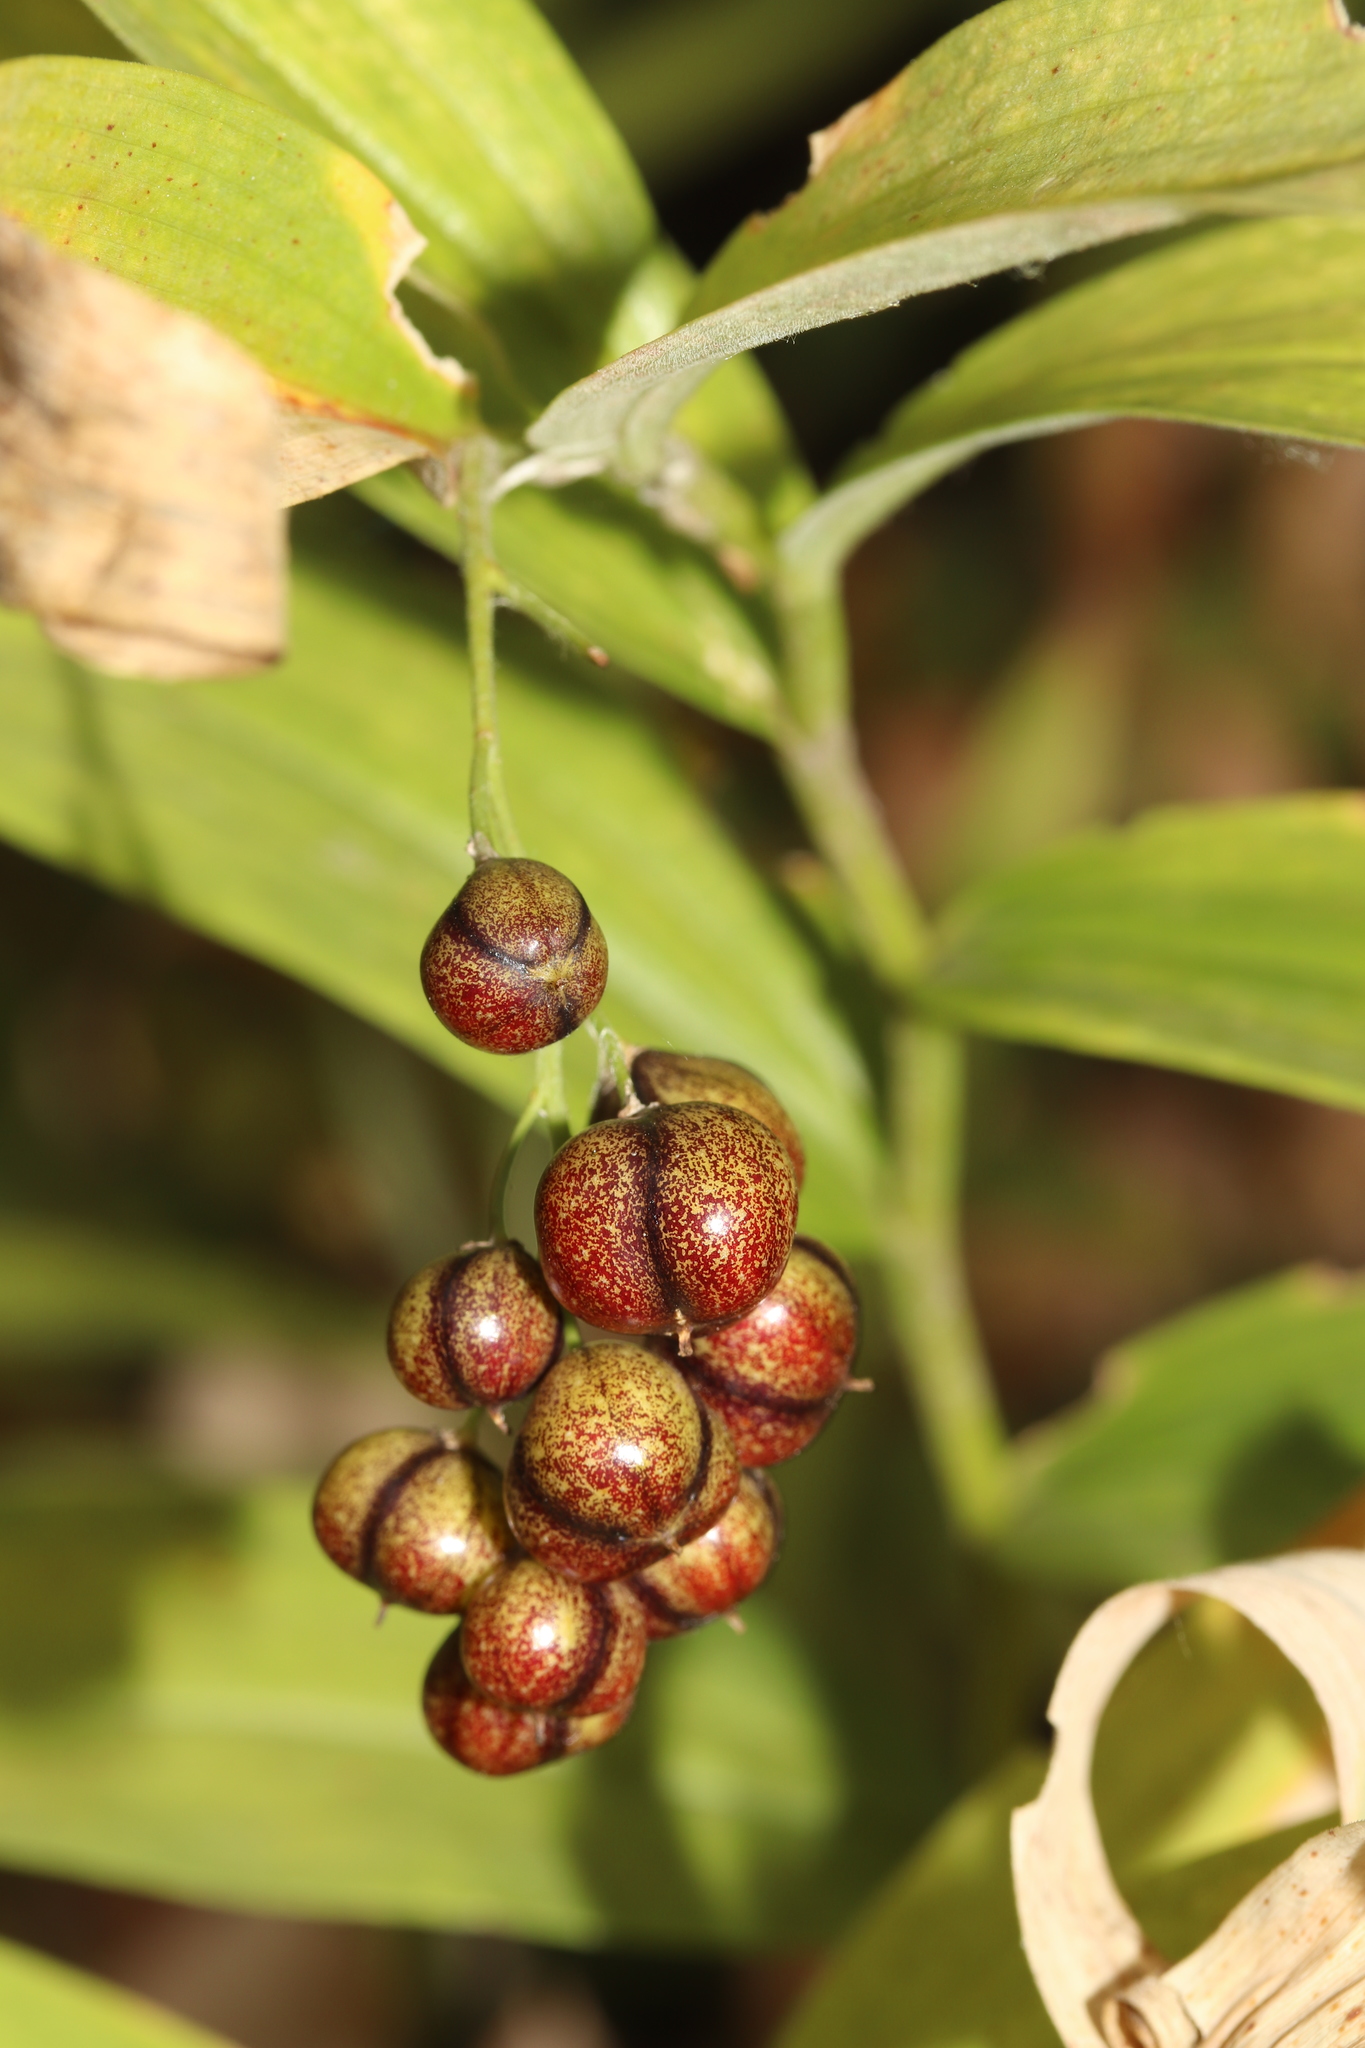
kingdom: Plantae
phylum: Tracheophyta
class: Liliopsida
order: Asparagales
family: Asparagaceae
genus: Maianthemum
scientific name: Maianthemum stellatum
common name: Little false solomon's seal
